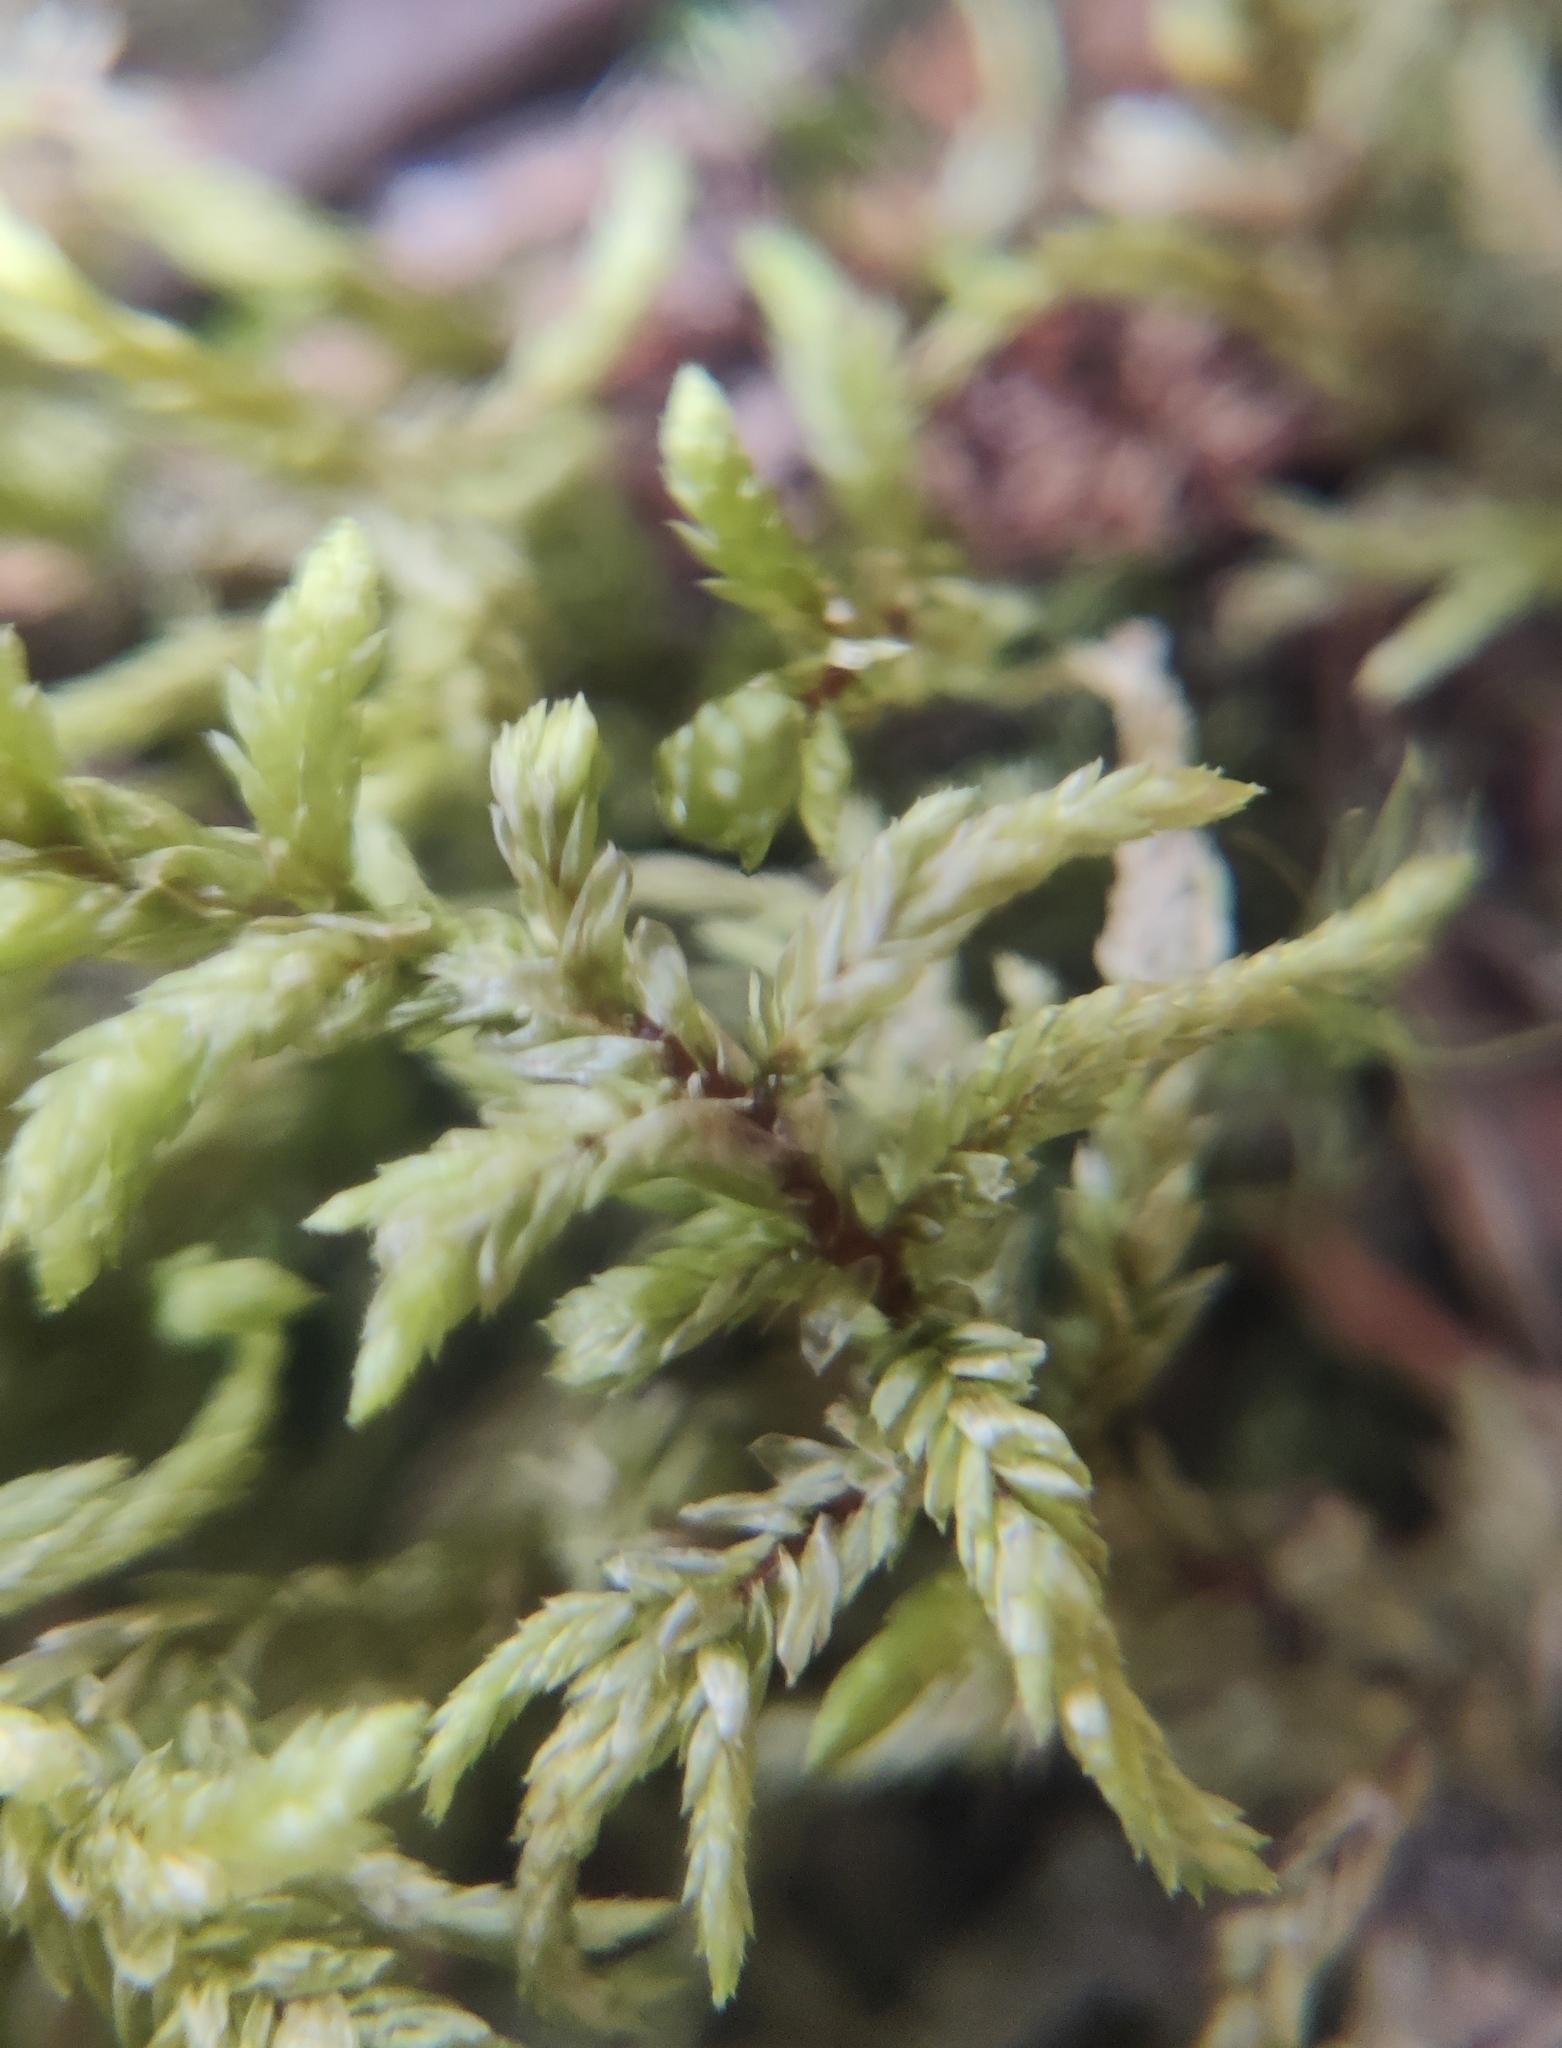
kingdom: Plantae
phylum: Bryophyta
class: Bryopsida
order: Hypnales
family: Hylocomiaceae
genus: Pleurozium
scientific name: Pleurozium schreberi
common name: Red-stemmed feather moss
